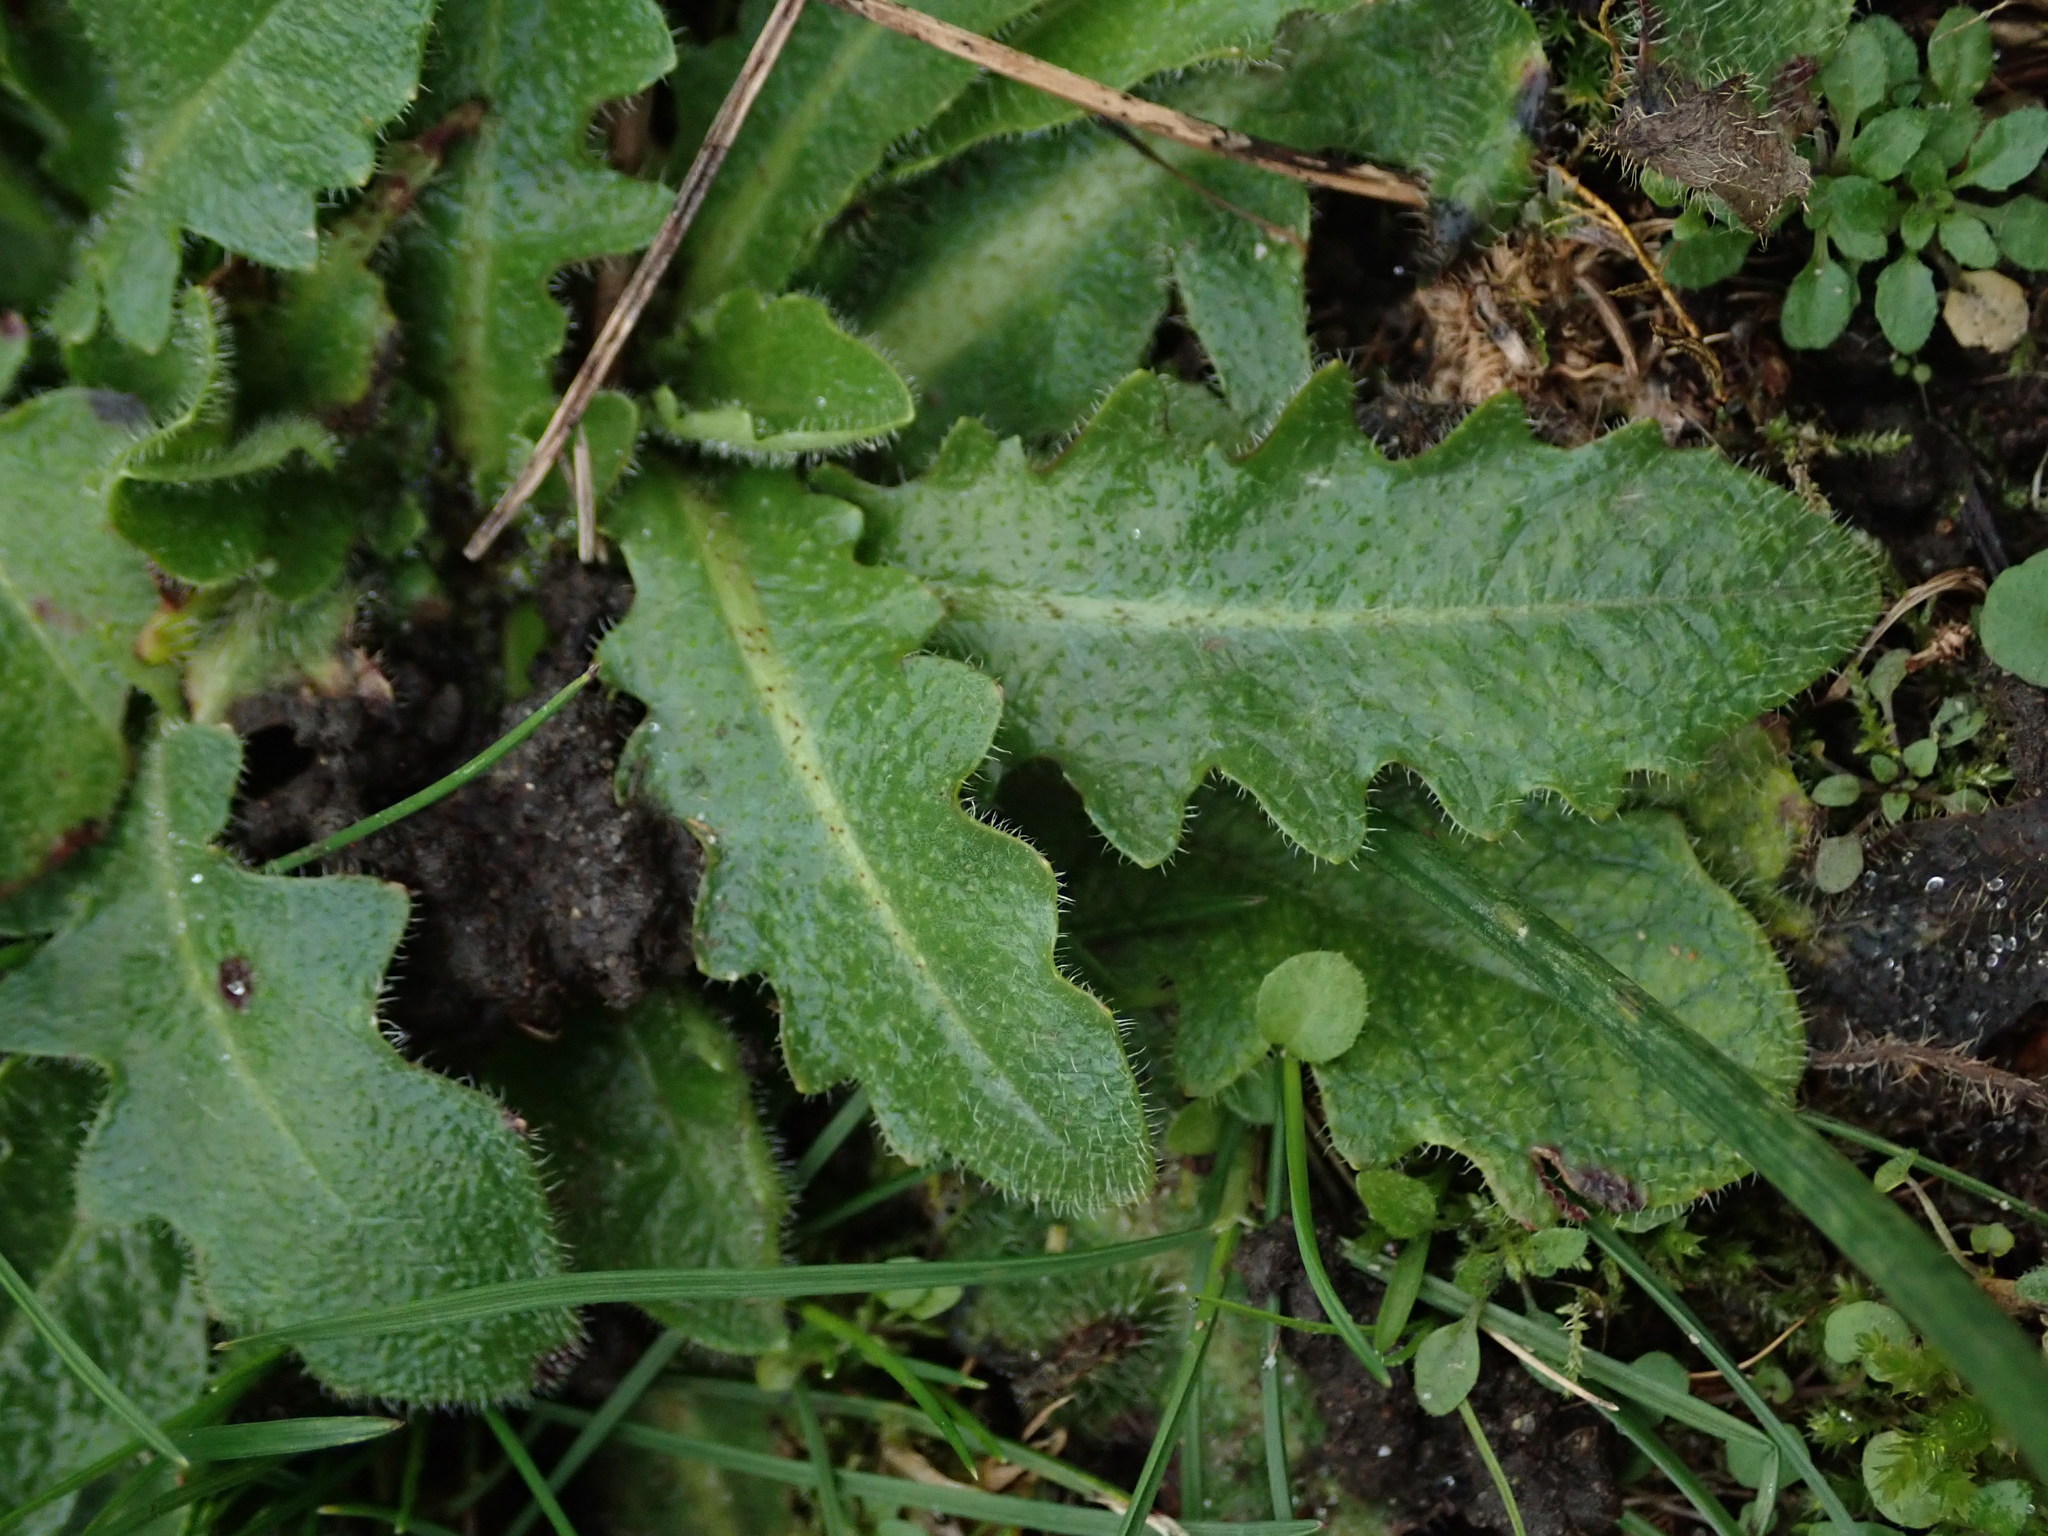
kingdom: Plantae
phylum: Tracheophyta
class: Magnoliopsida
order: Asterales
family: Asteraceae
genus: Hypochaeris
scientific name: Hypochaeris radicata
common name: Flatweed
